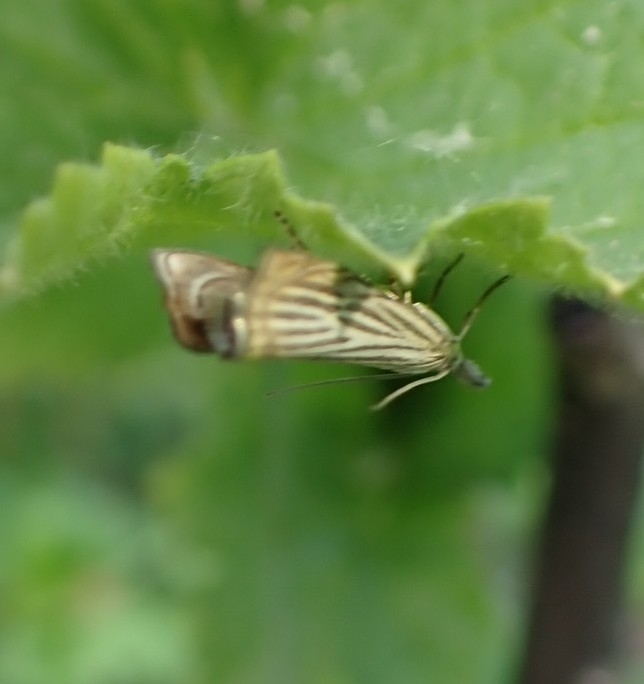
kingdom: Animalia
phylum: Arthropoda
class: Insecta
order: Lepidoptera
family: Crambidae
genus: Chrysoteuchia
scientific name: Chrysoteuchia culmella
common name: Garden grass-veneer
